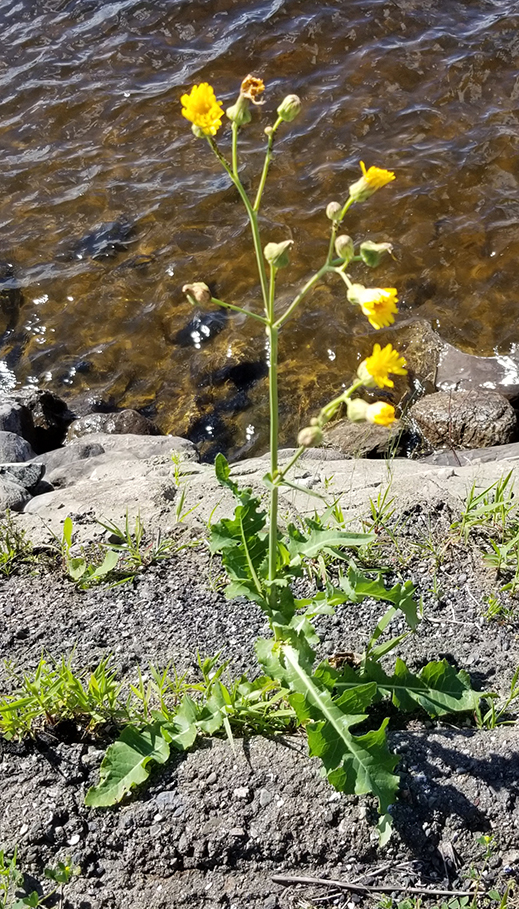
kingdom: Plantae
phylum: Tracheophyta
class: Magnoliopsida
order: Asterales
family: Asteraceae
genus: Sonchus
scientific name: Sonchus arvensis
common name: Perennial sow-thistle
